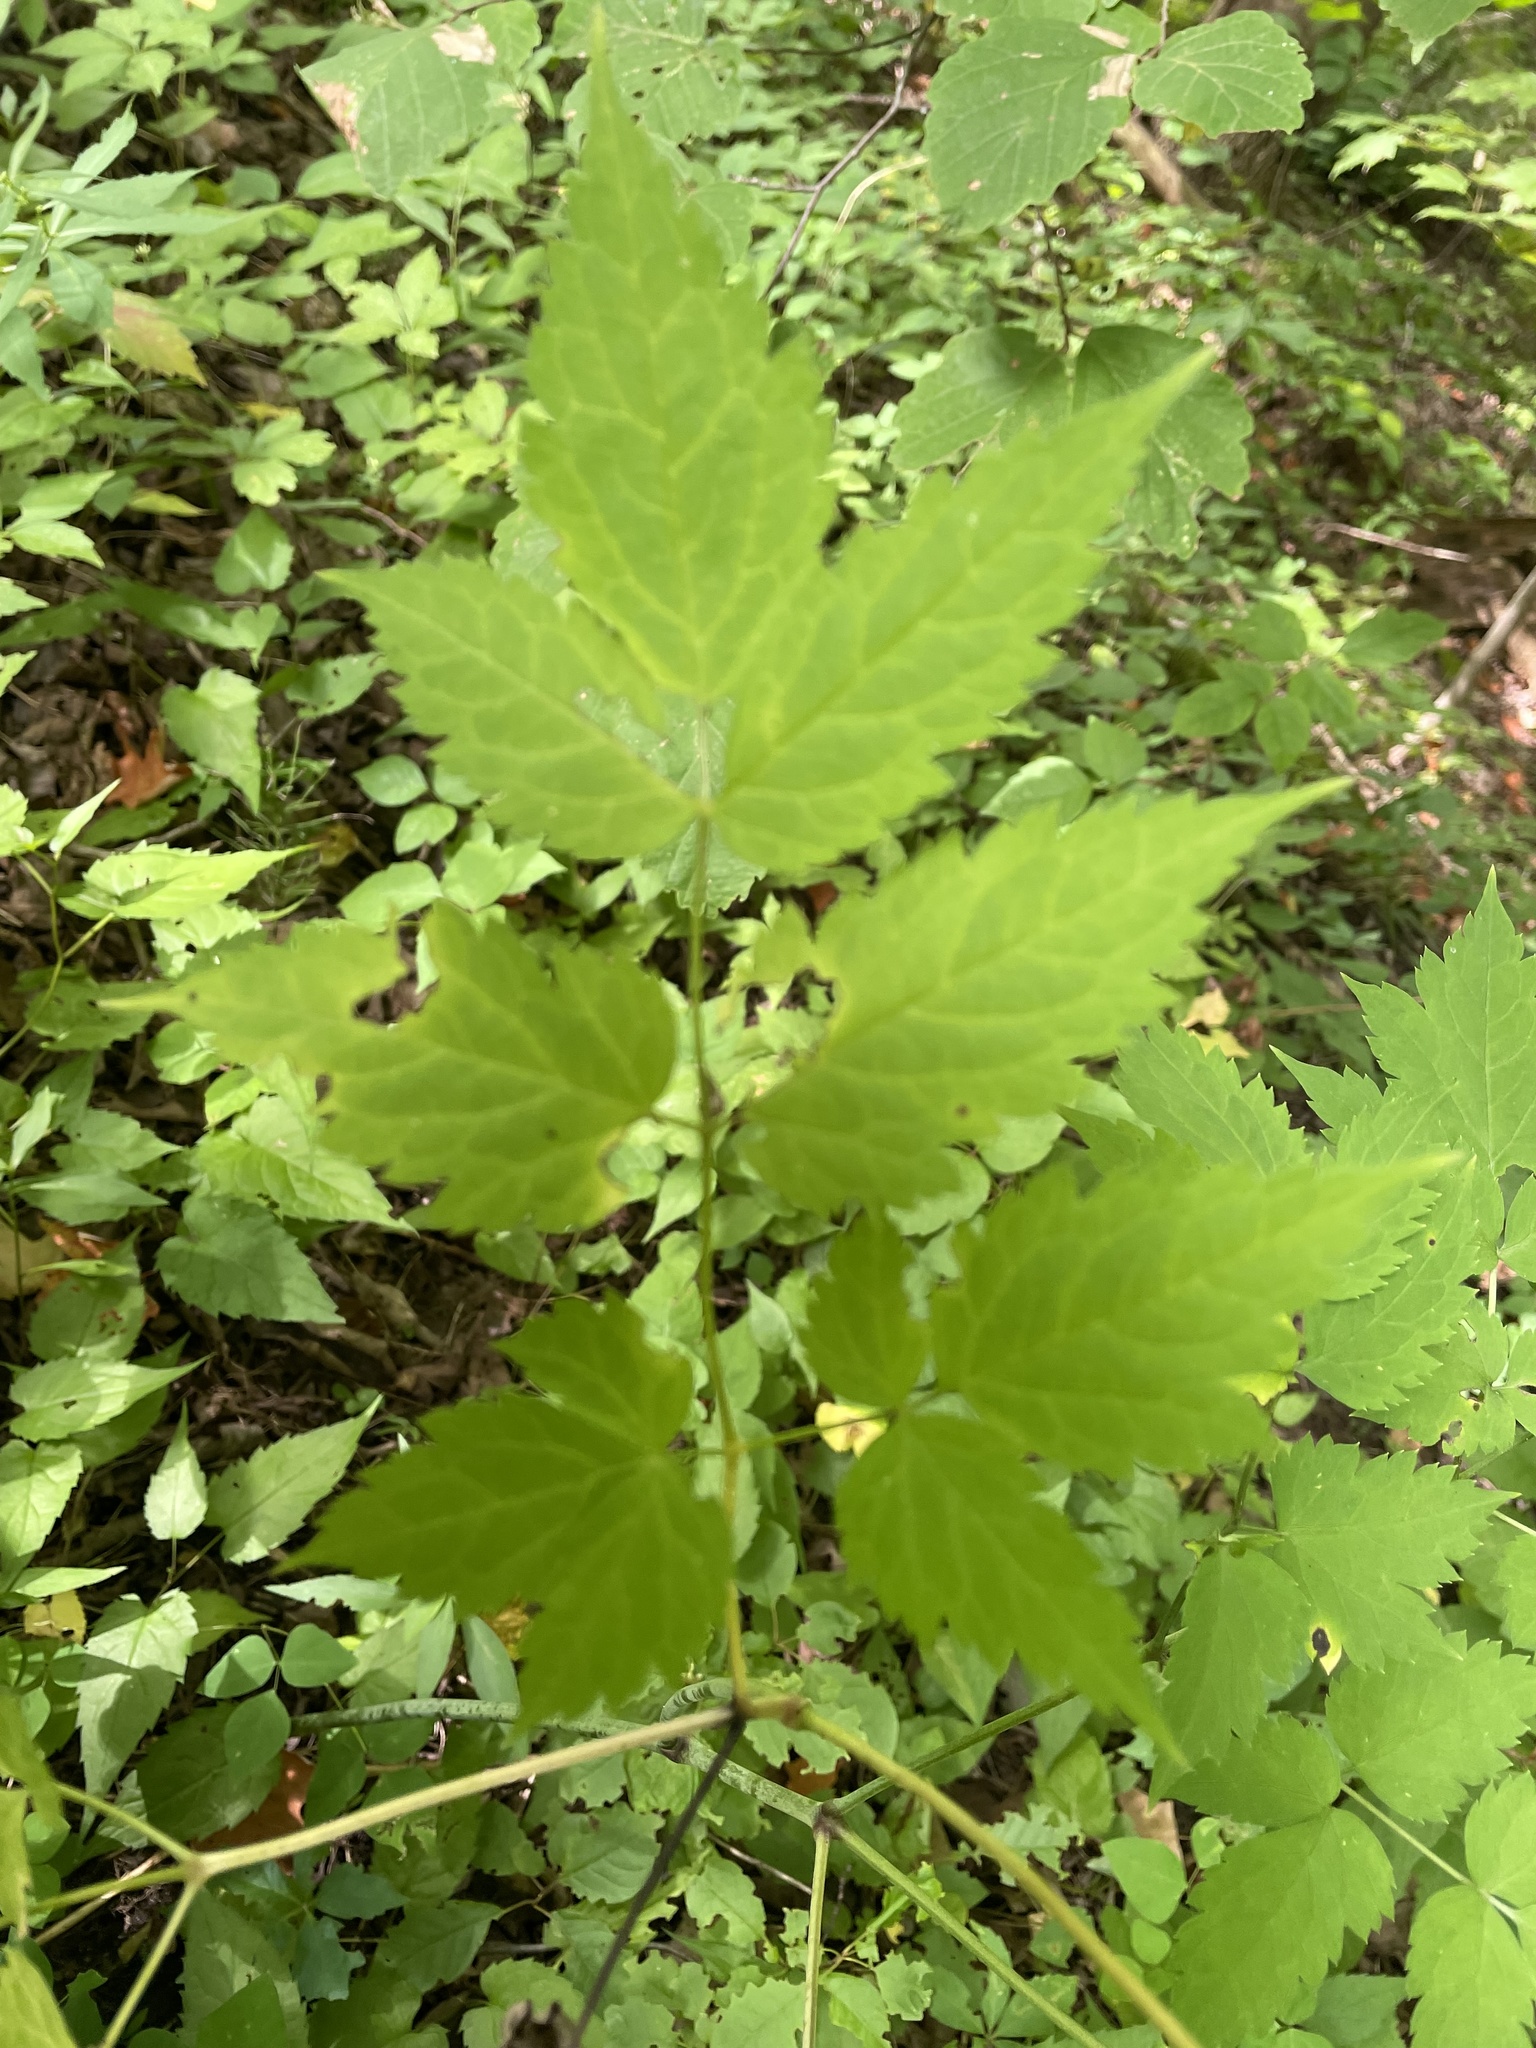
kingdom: Plantae
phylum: Tracheophyta
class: Magnoliopsida
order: Ranunculales
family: Ranunculaceae
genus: Actaea
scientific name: Actaea pachypoda
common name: Doll's-eyes
